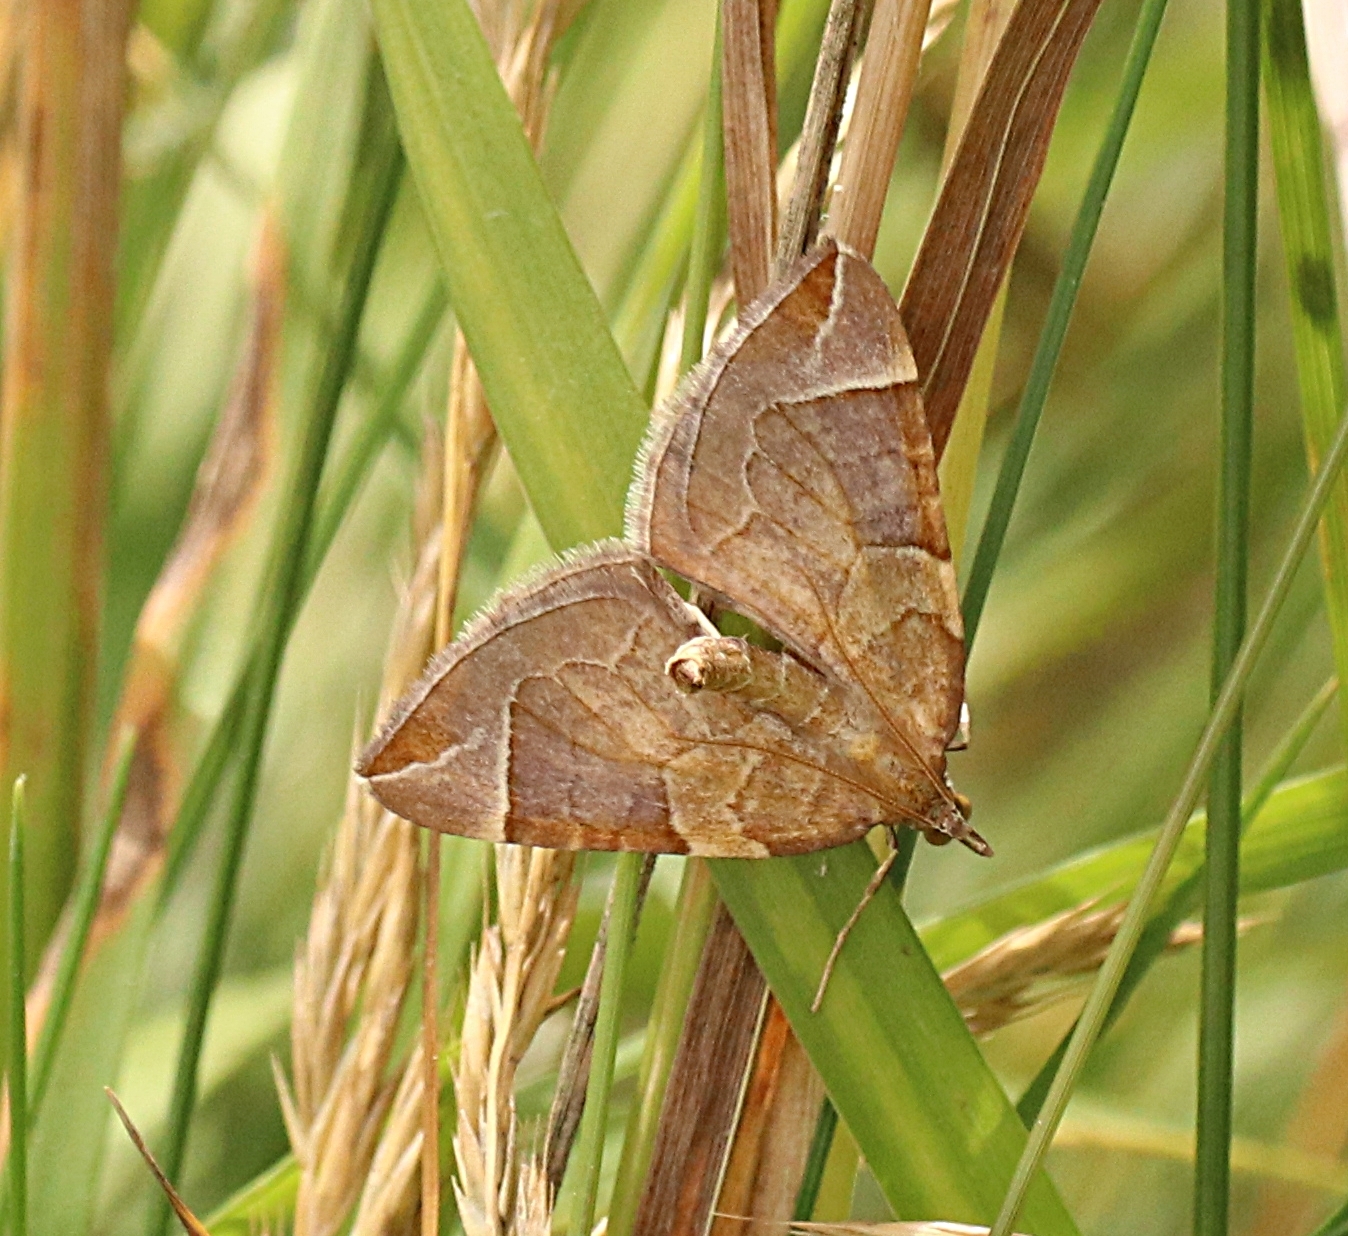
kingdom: Animalia
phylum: Arthropoda
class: Insecta
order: Lepidoptera
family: Geometridae
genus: Eulithis
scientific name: Eulithis testata
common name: Chevron
